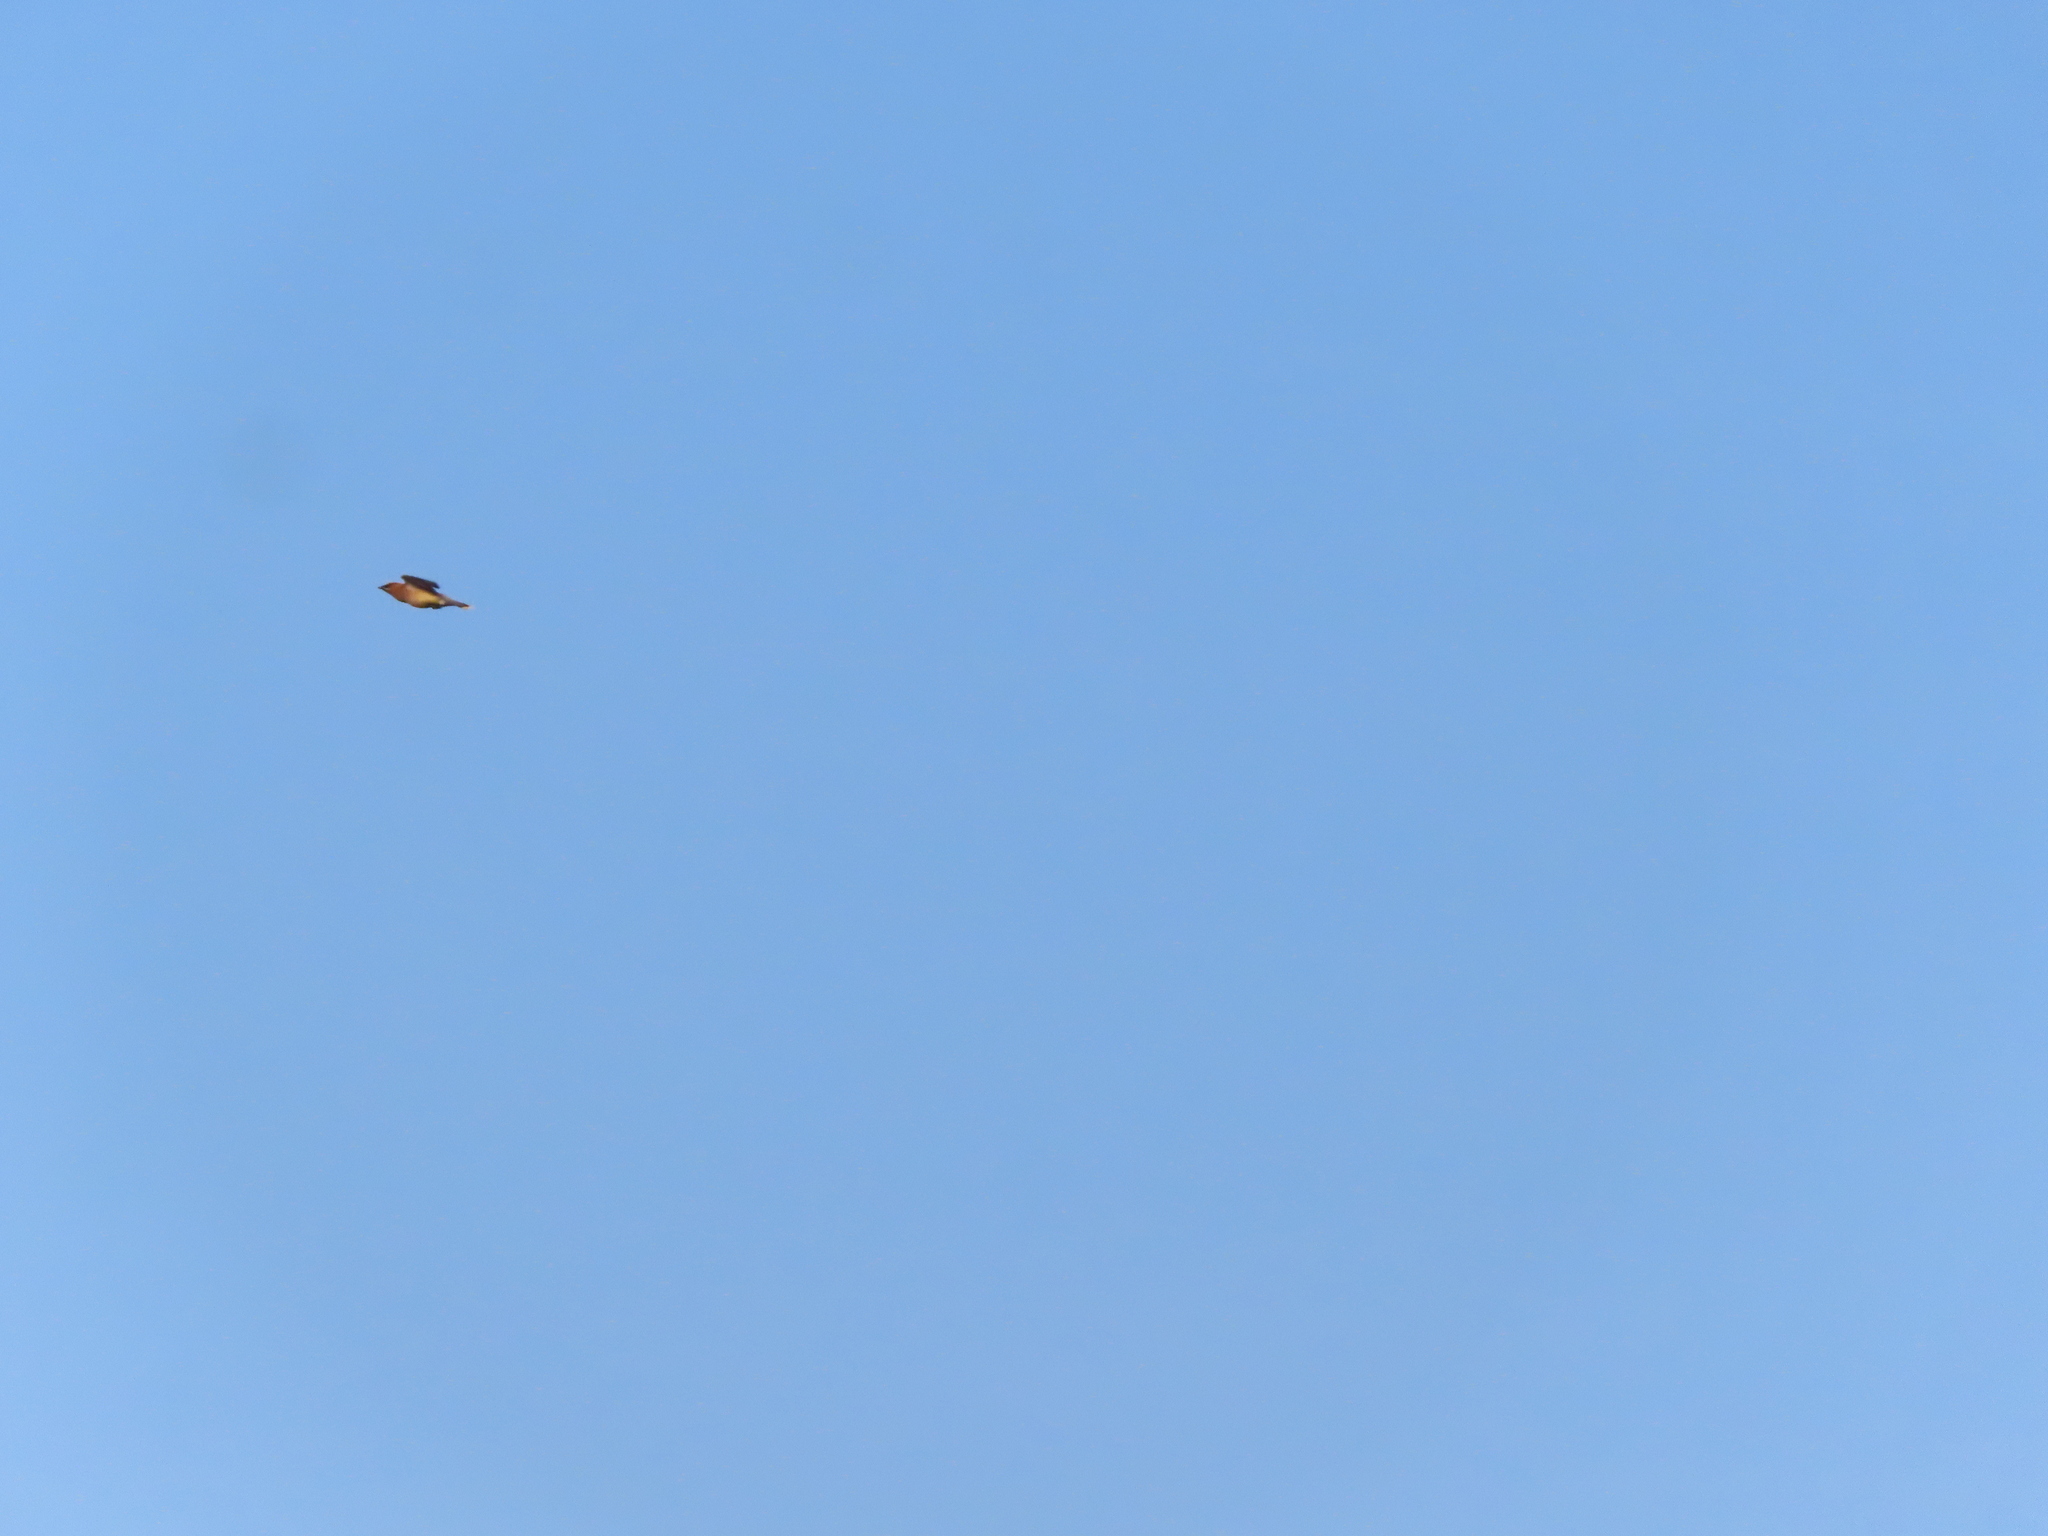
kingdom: Animalia
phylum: Chordata
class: Aves
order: Passeriformes
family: Bombycillidae
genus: Bombycilla
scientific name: Bombycilla cedrorum
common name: Cedar waxwing
